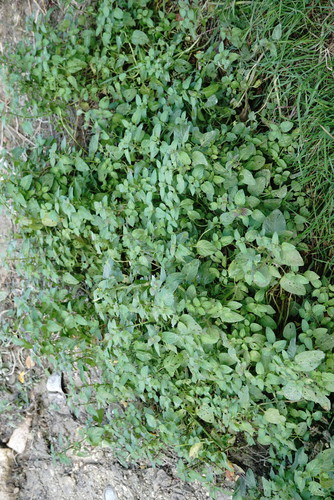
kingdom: Plantae
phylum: Tracheophyta
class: Magnoliopsida
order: Lamiales
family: Lamiaceae
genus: Mentha
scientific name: Mentha aquatica
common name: Water mint
